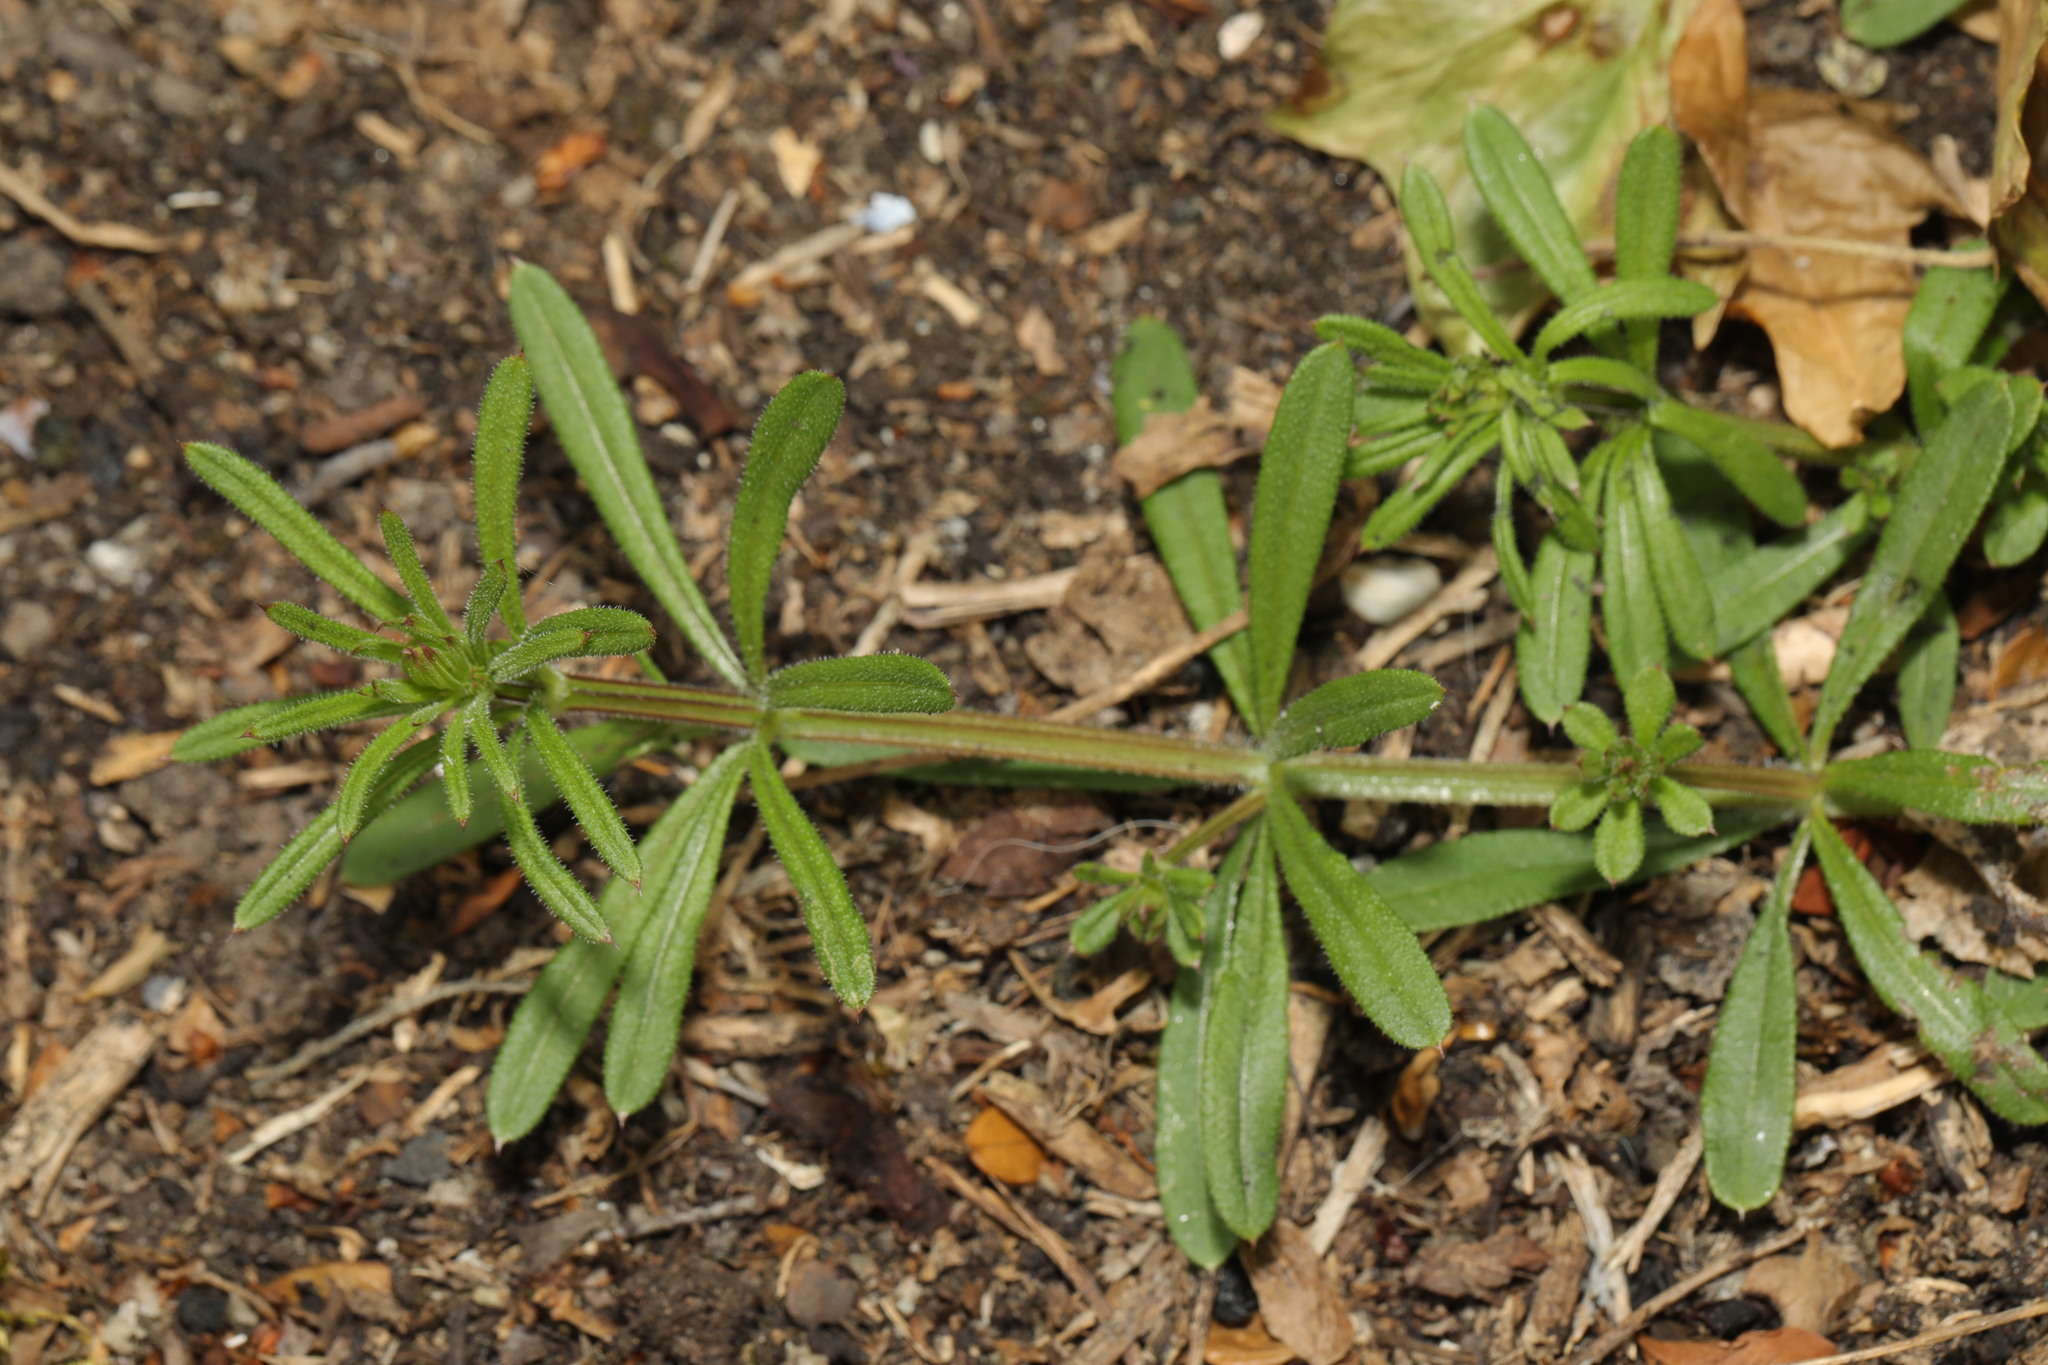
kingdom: Plantae
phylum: Tracheophyta
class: Magnoliopsida
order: Gentianales
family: Rubiaceae
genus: Galium
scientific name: Galium aparine
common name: Cleavers
